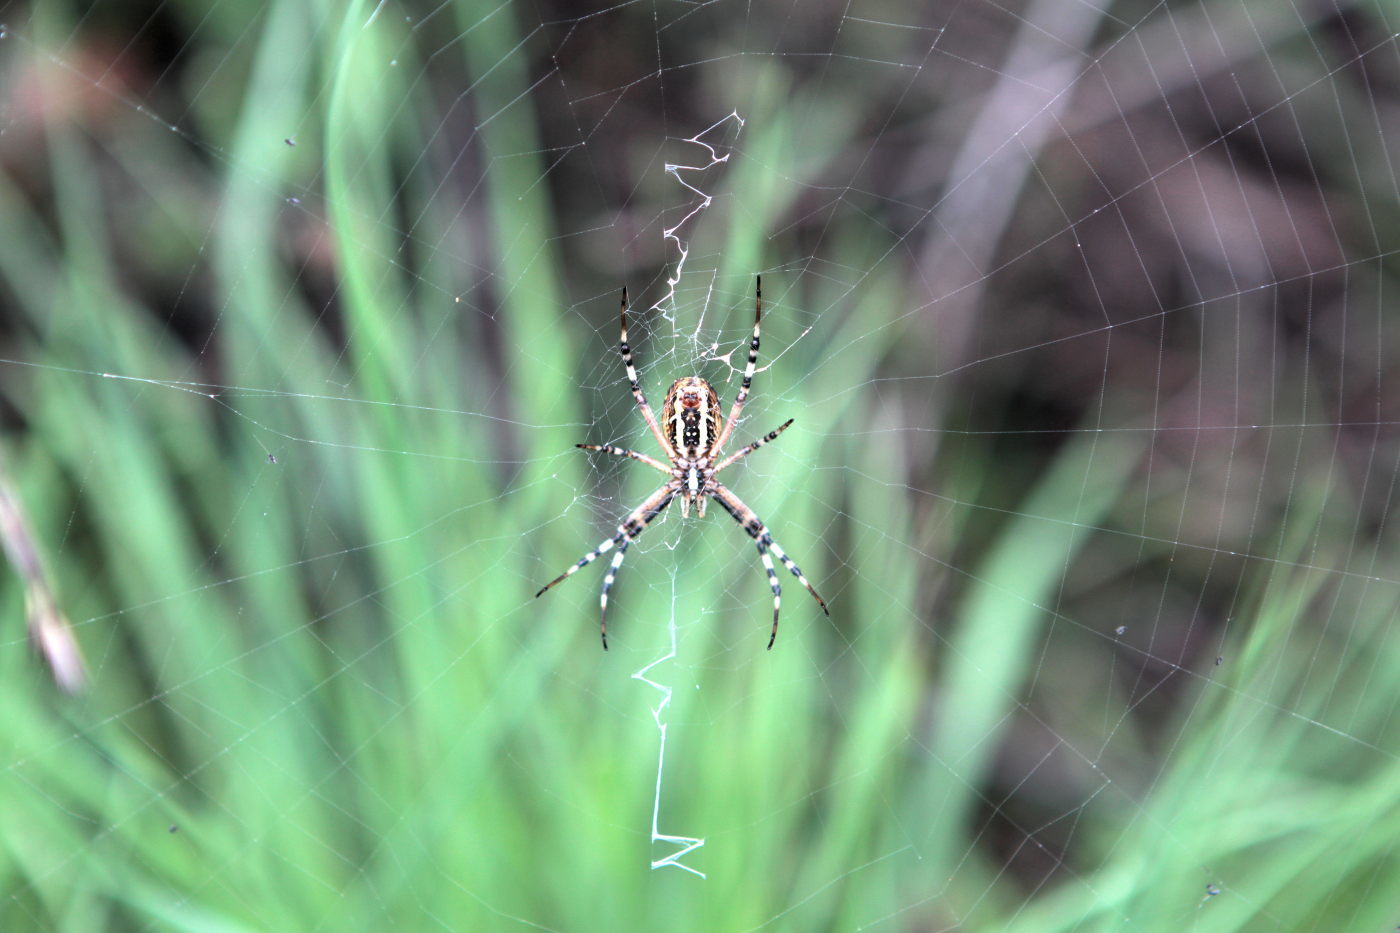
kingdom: Animalia
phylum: Arthropoda
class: Arachnida
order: Araneae
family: Araneidae
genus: Argiope
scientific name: Argiope bruennichi
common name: Wasp spider
